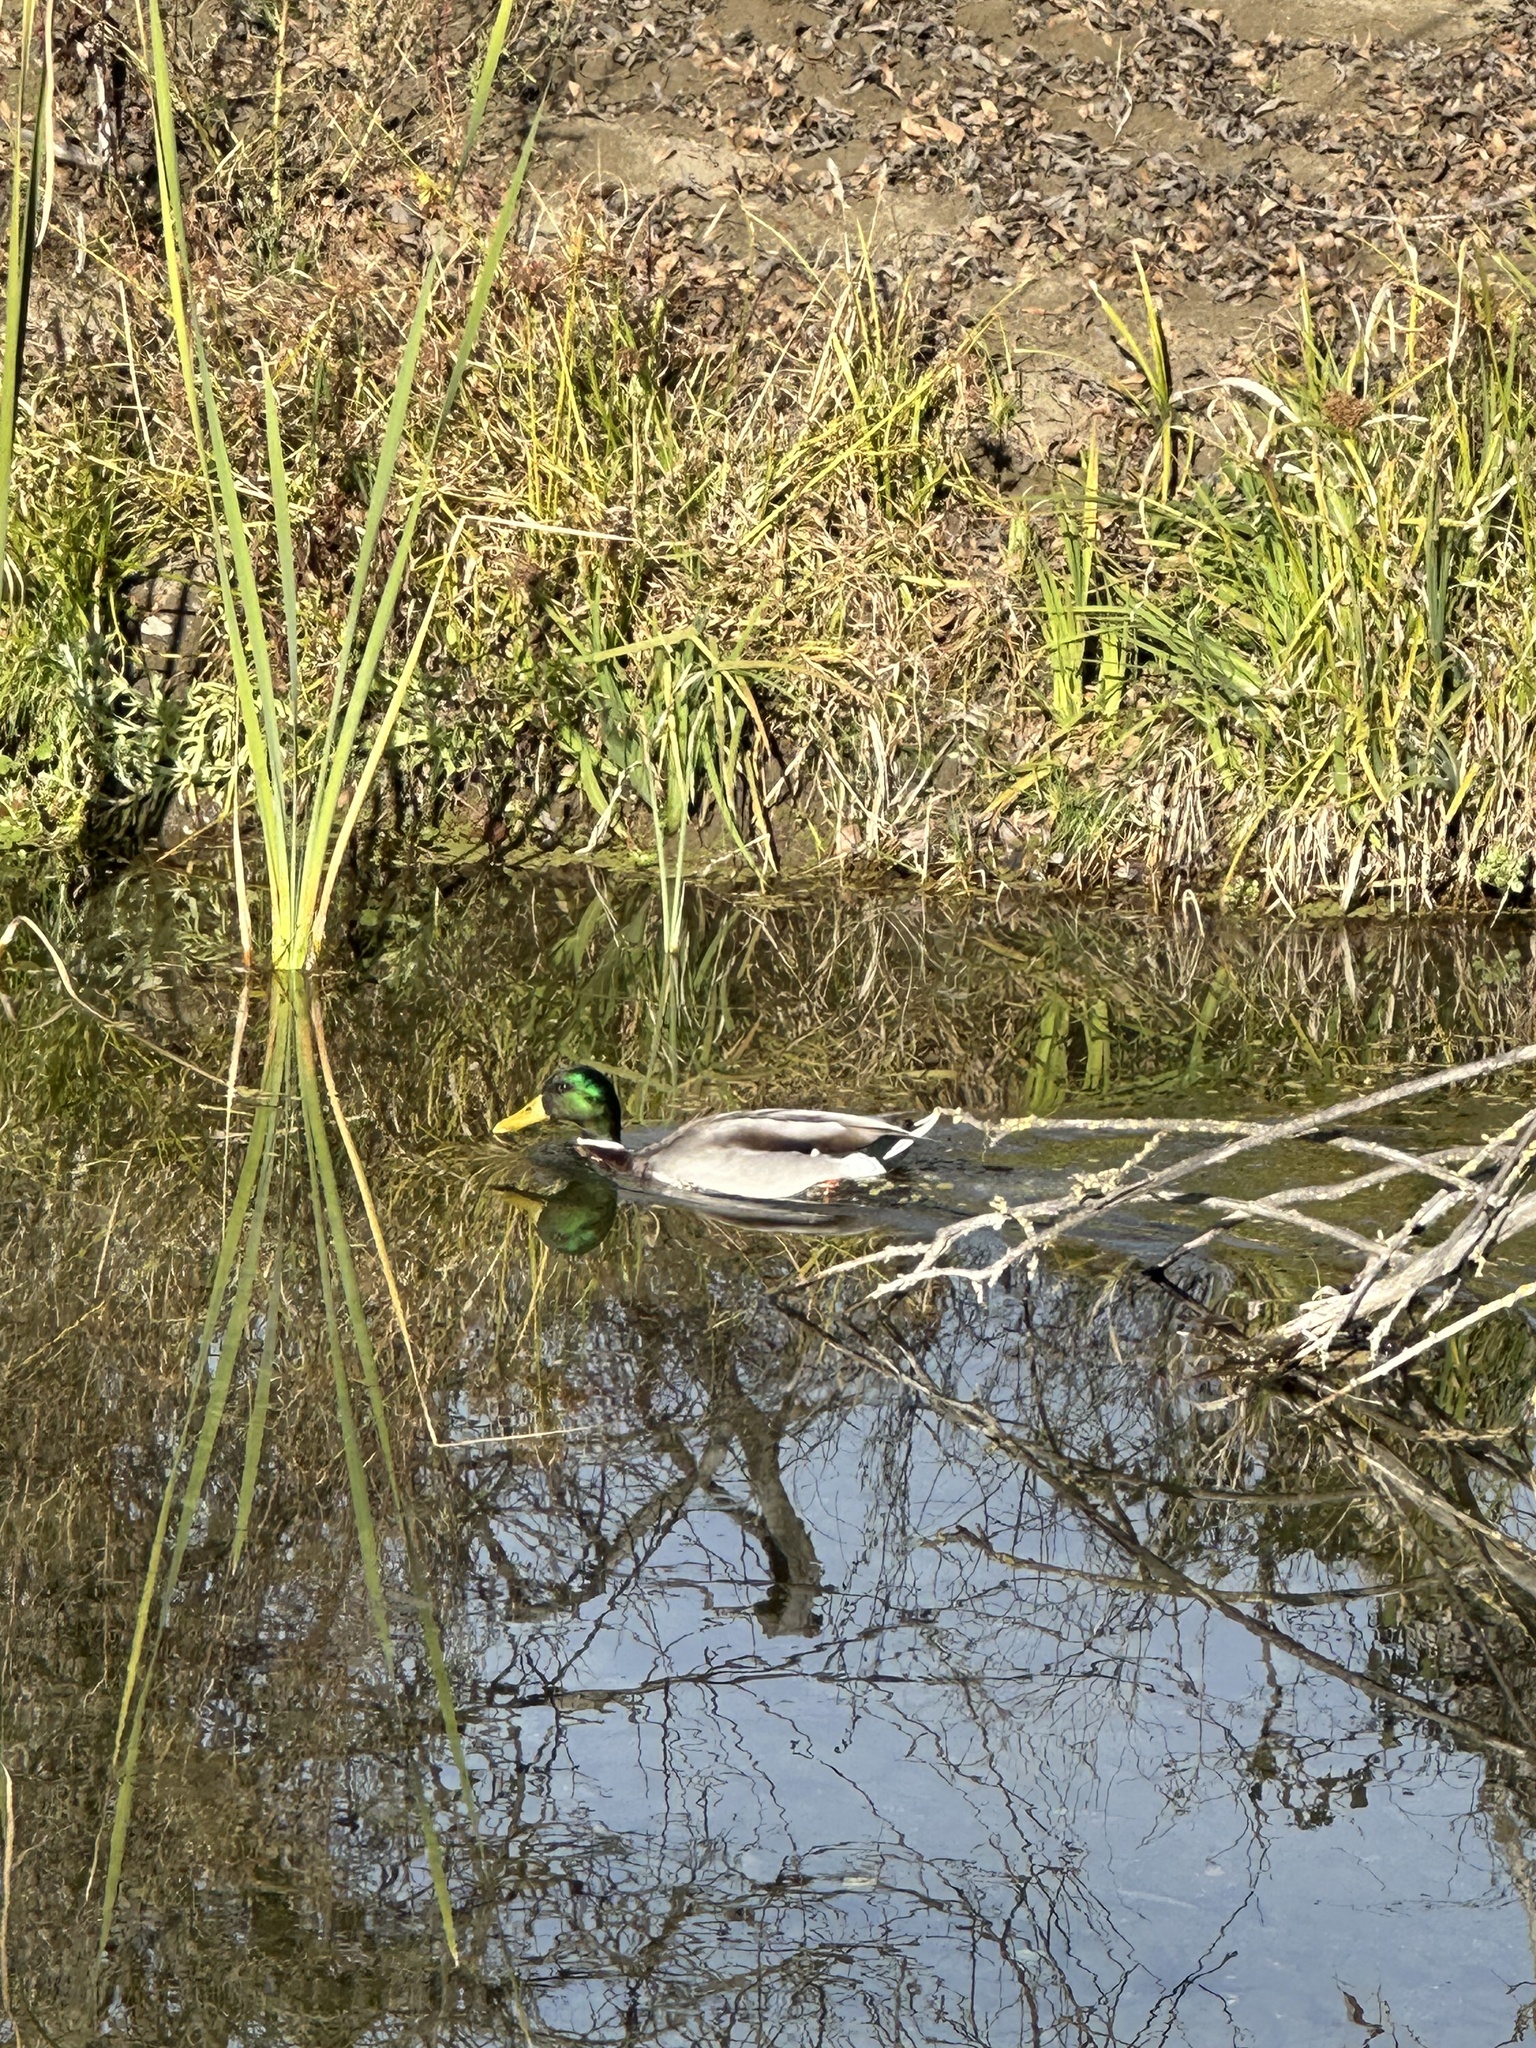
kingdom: Animalia
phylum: Chordata
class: Aves
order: Anseriformes
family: Anatidae
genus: Anas
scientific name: Anas platyrhynchos
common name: Mallard
